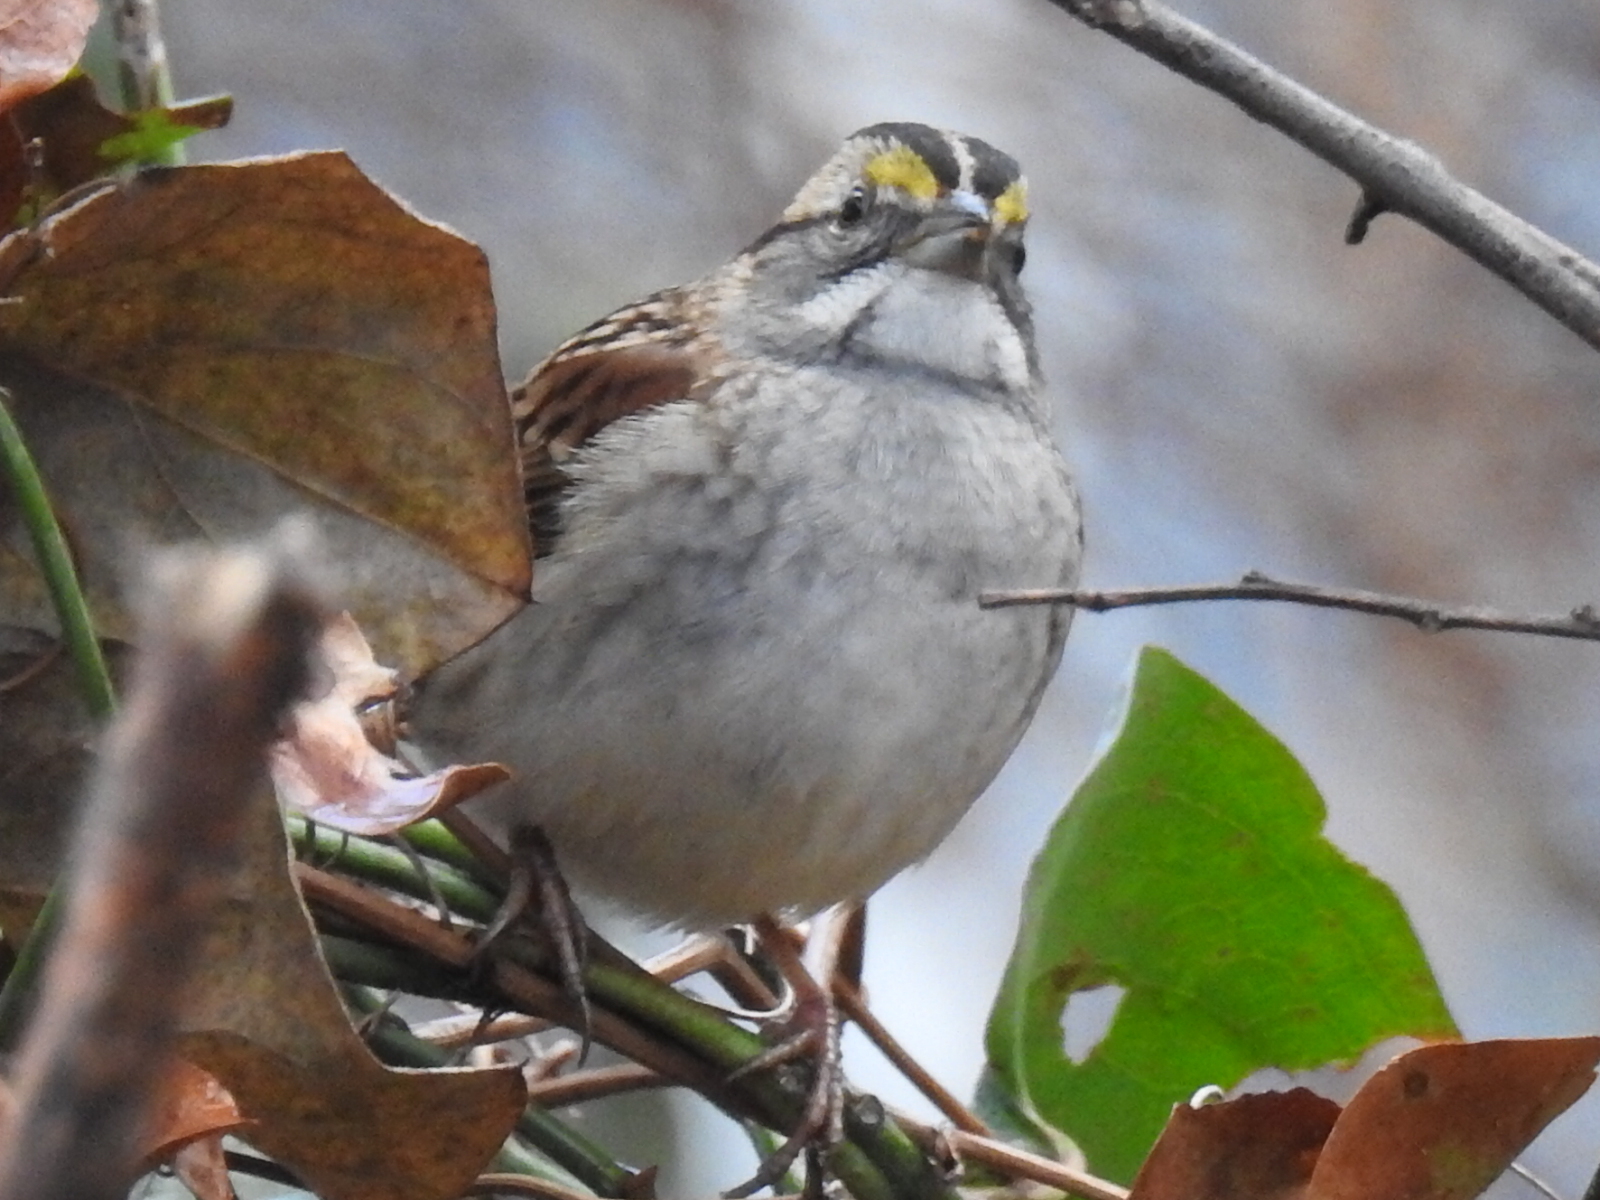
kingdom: Animalia
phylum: Chordata
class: Aves
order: Passeriformes
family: Passerellidae
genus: Zonotrichia
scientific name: Zonotrichia albicollis
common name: White-throated sparrow
